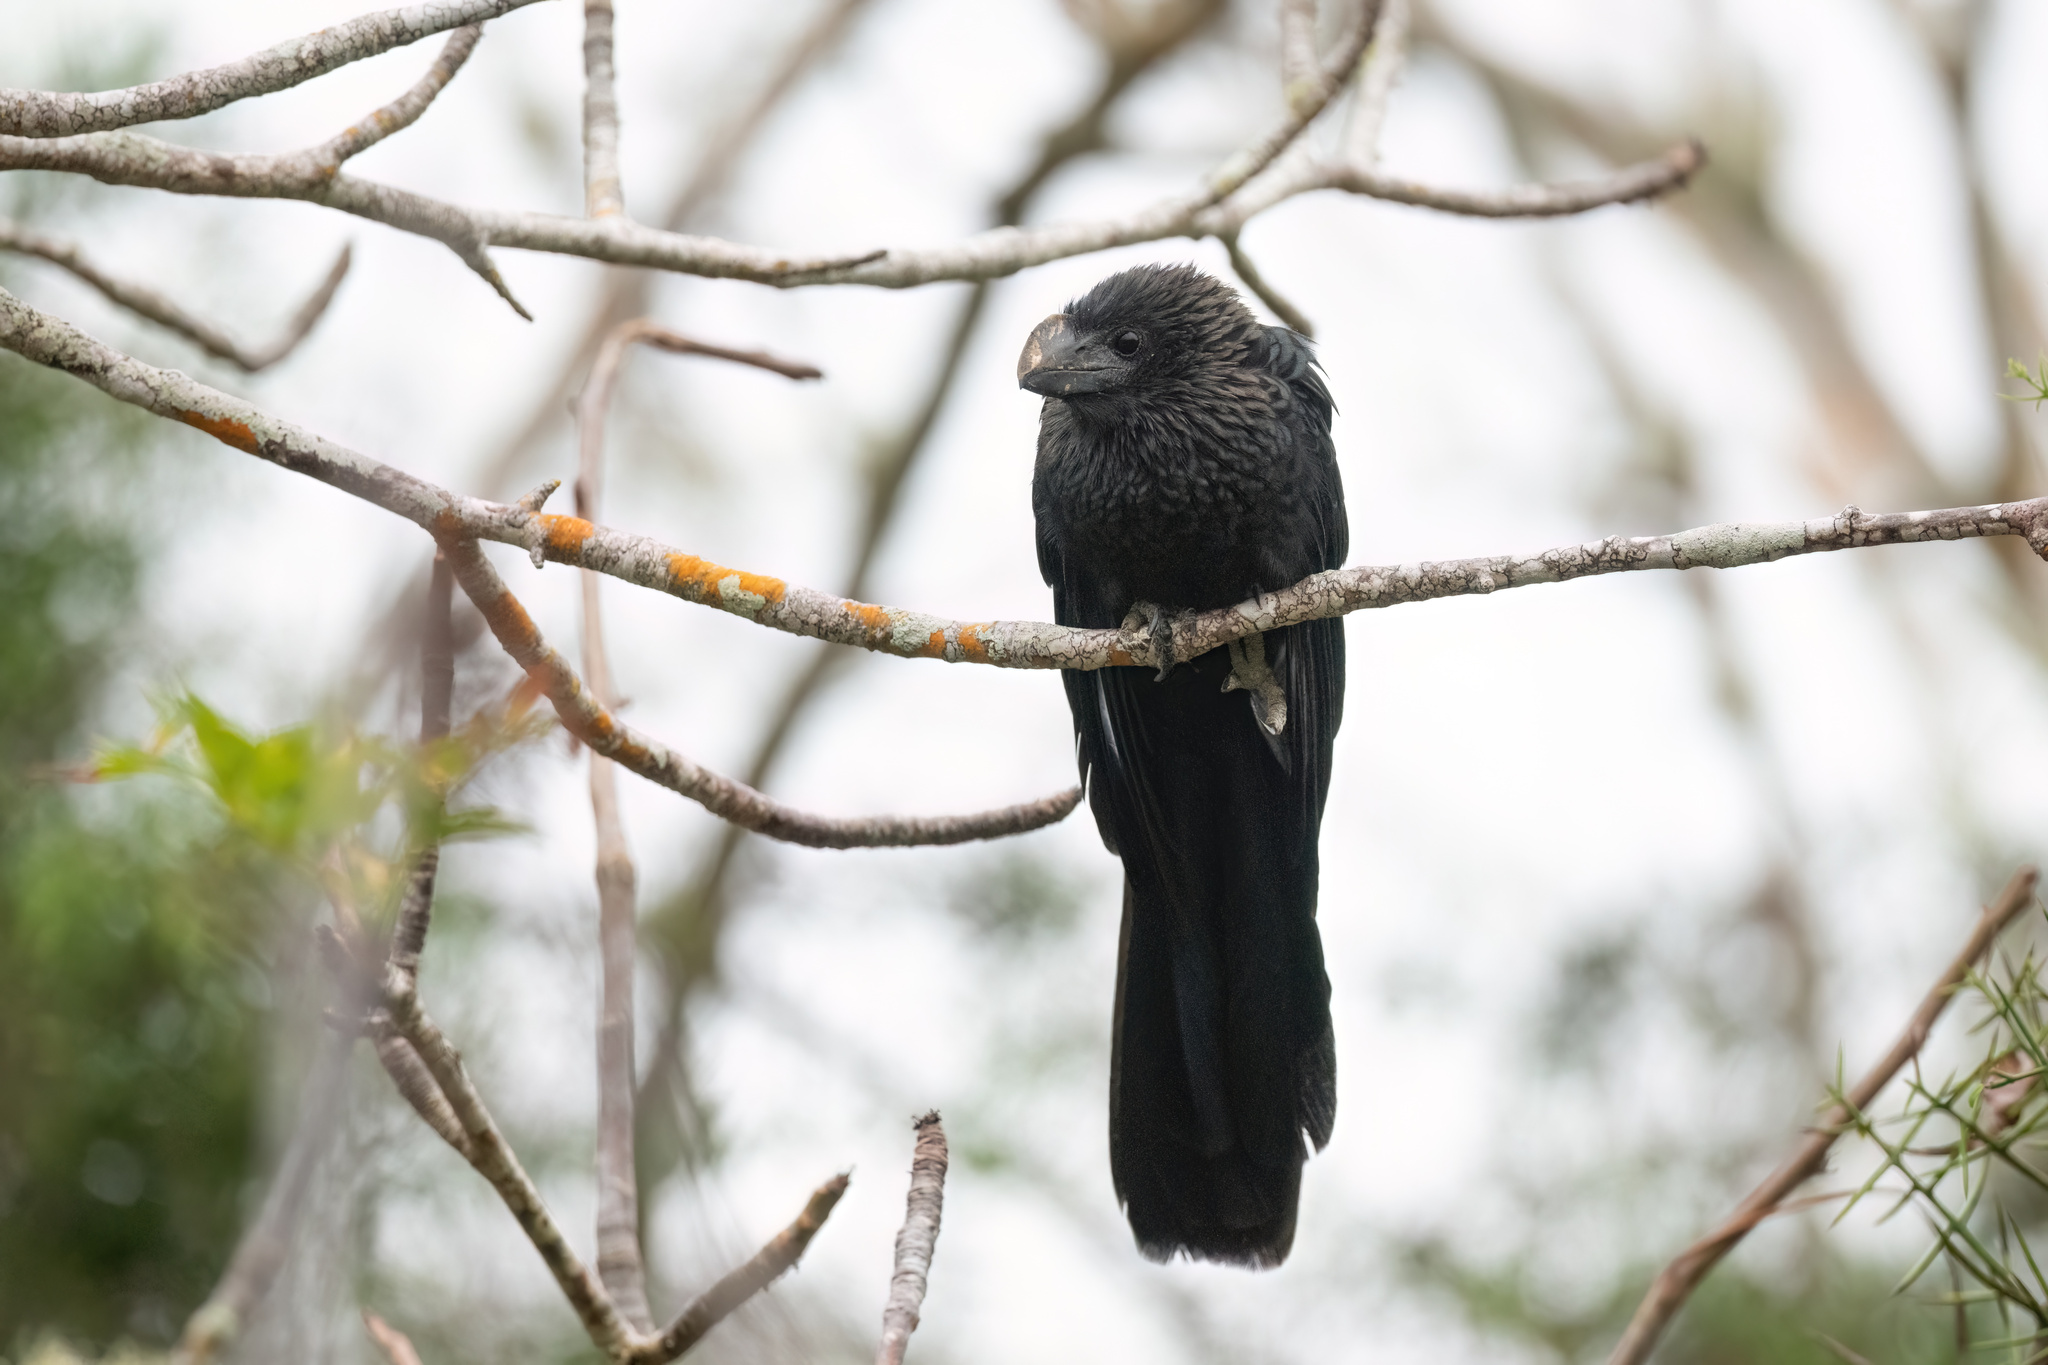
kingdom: Animalia
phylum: Chordata
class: Aves
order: Cuculiformes
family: Cuculidae
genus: Crotophaga
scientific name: Crotophaga ani
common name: Smooth-billed ani
